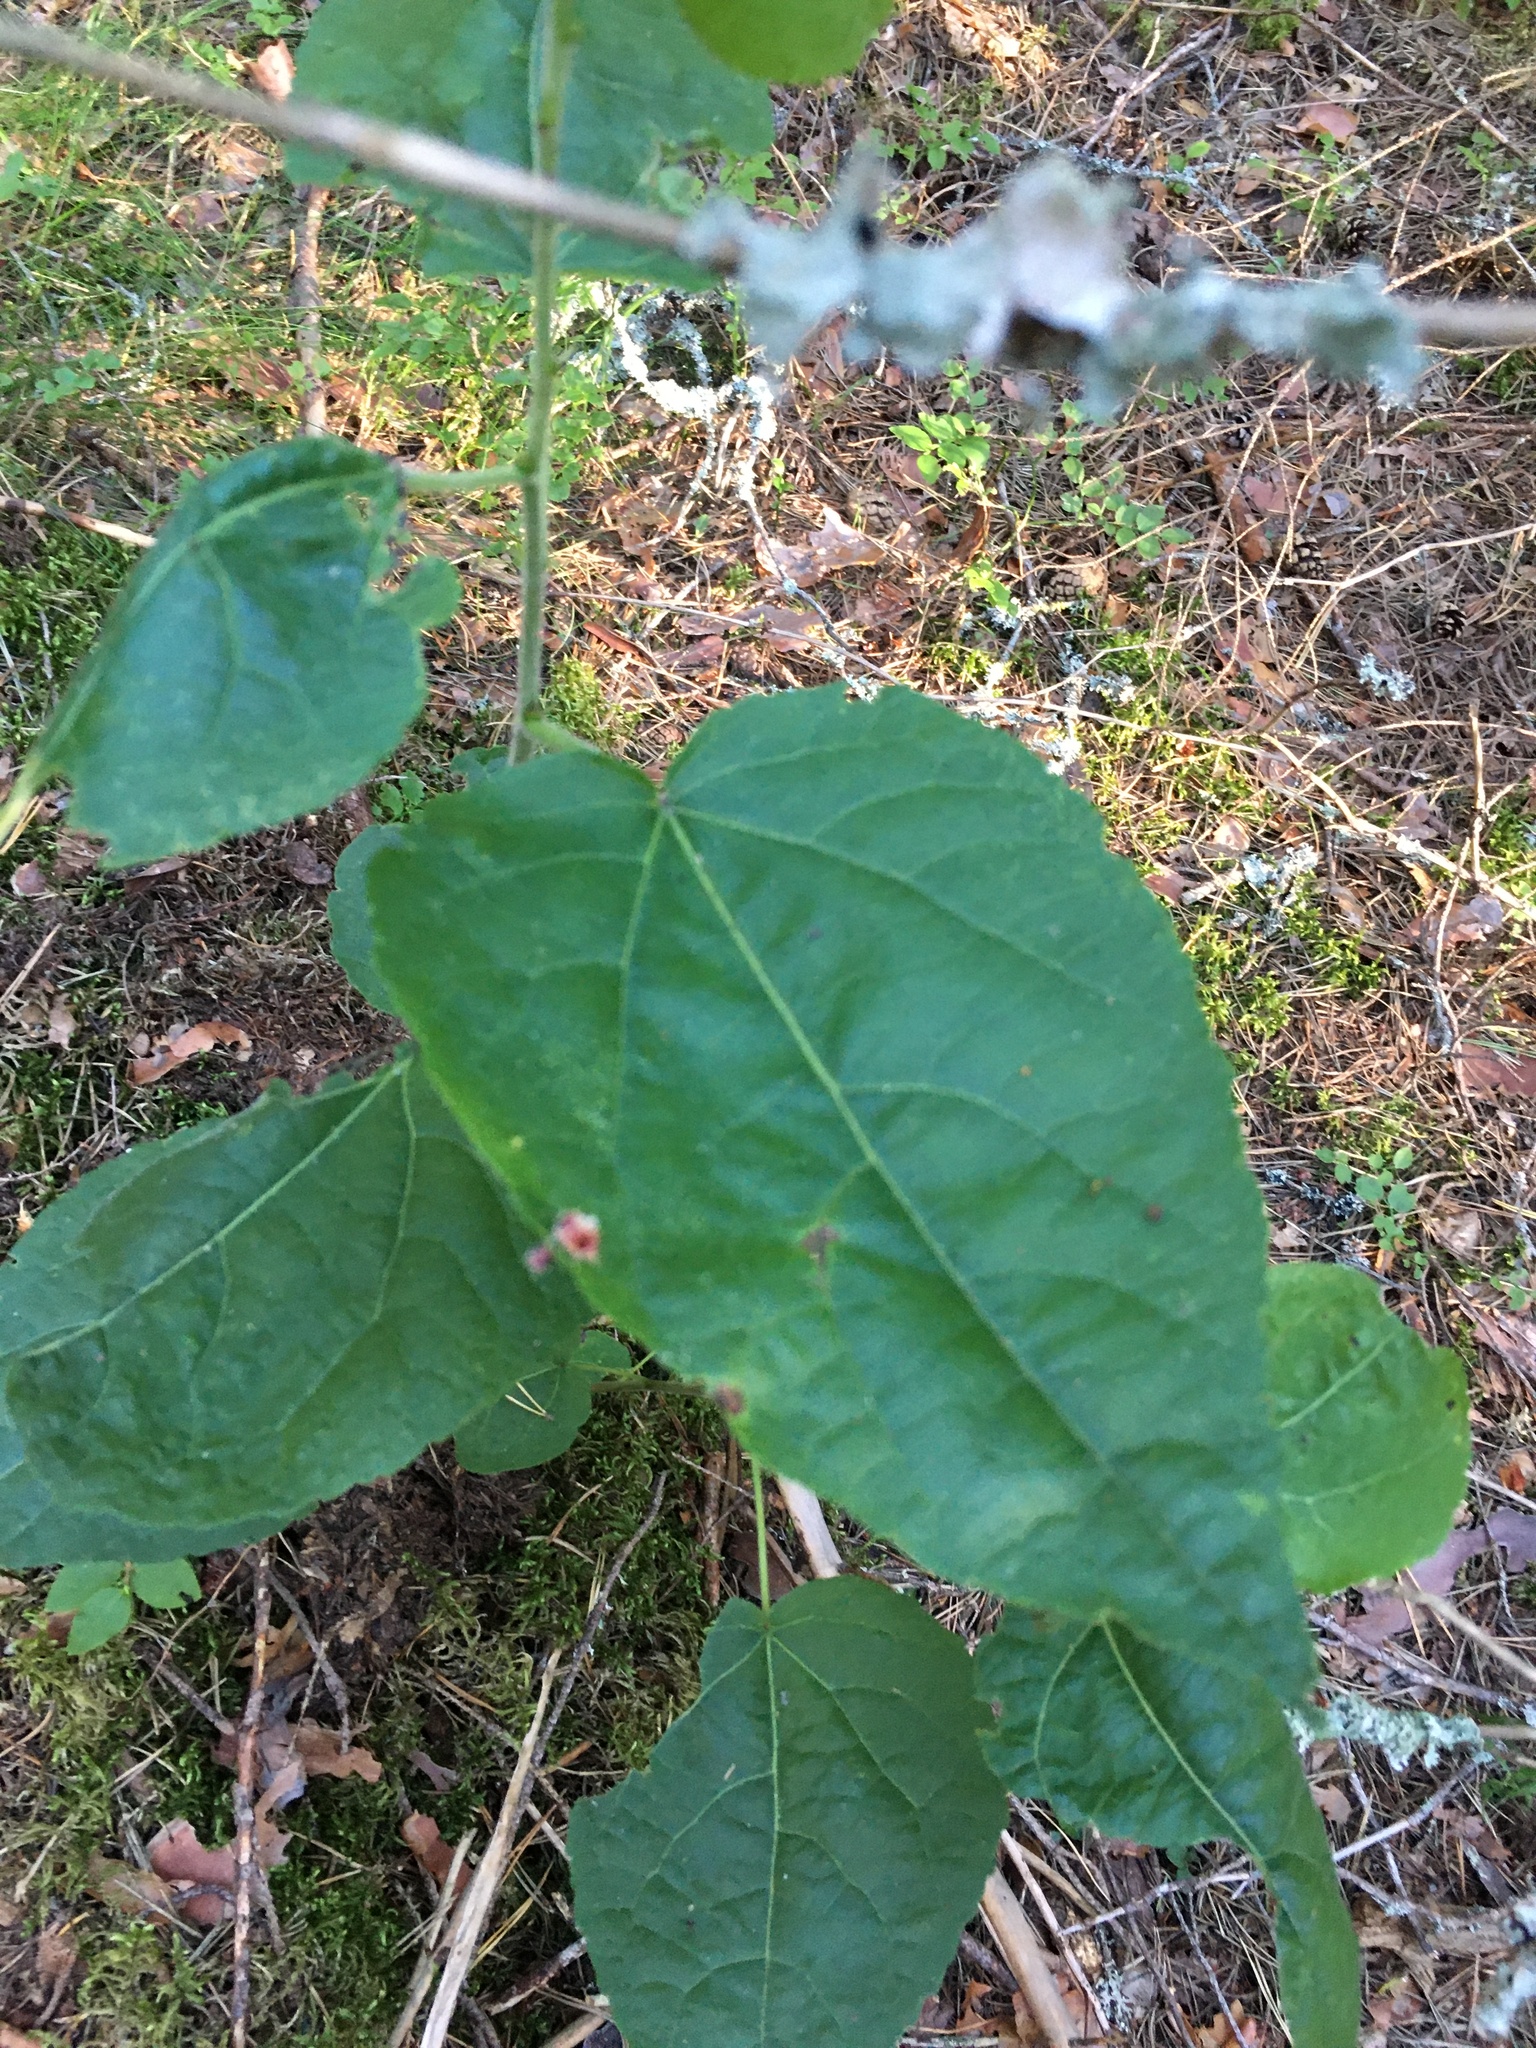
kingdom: Plantae
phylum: Tracheophyta
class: Magnoliopsida
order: Malpighiales
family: Salicaceae
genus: Populus
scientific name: Populus tremula
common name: European aspen
